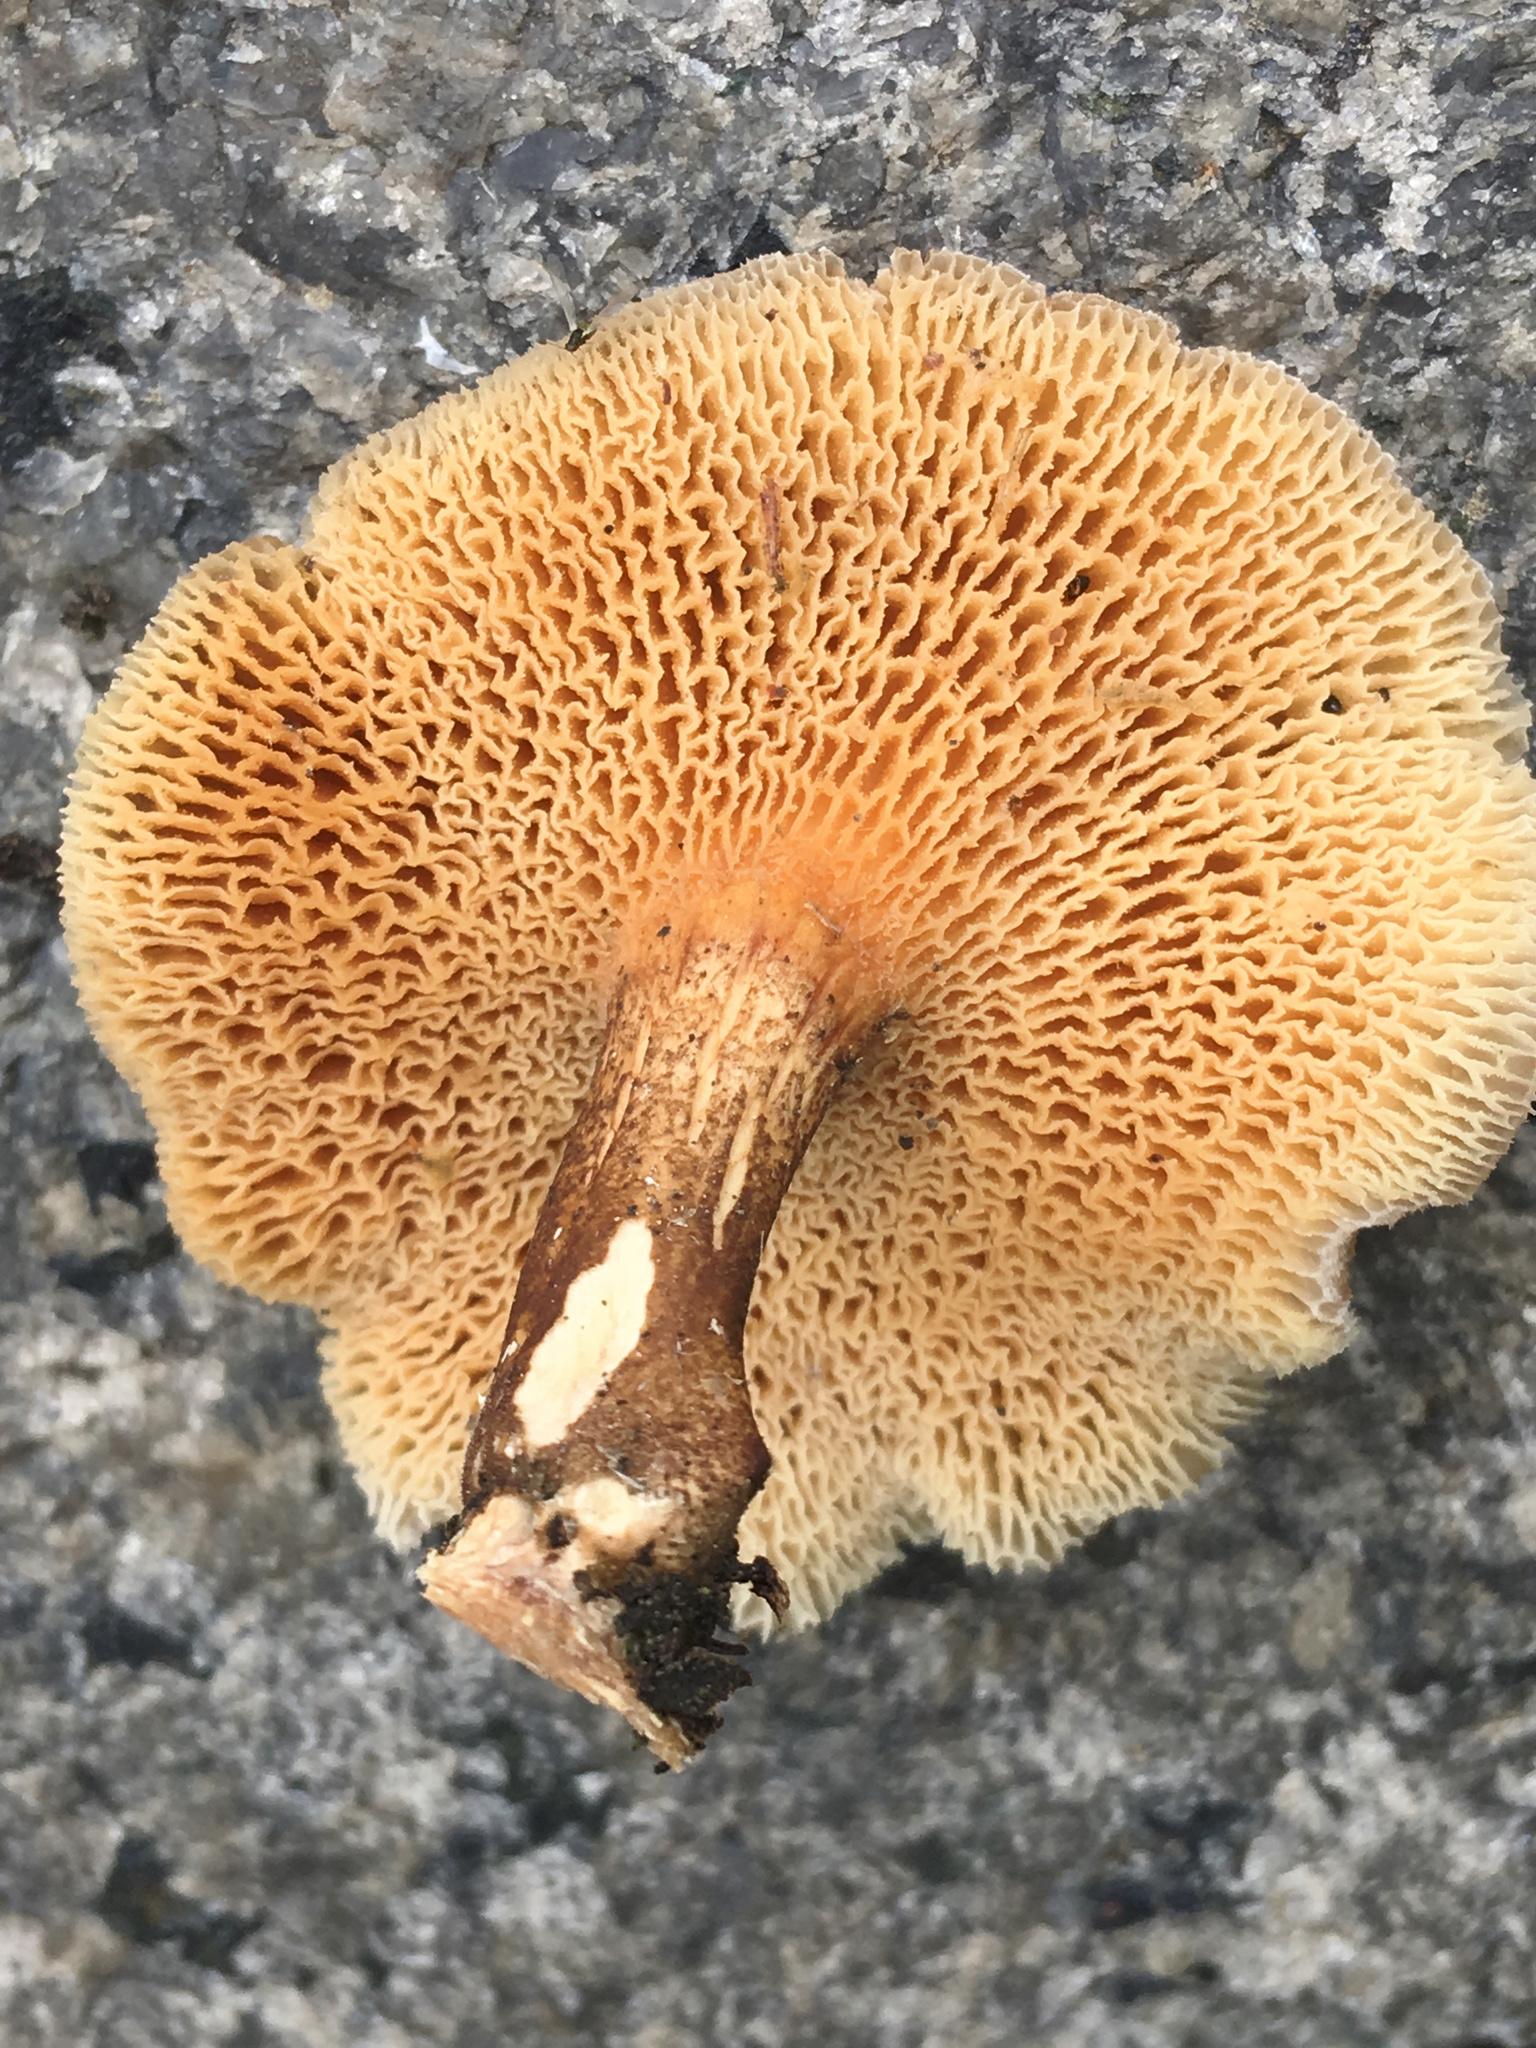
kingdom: Fungi
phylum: Basidiomycota
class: Agaricomycetes
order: Polyporales
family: Polyporaceae
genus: Lentinus
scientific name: Lentinus arcularius
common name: Spring polypore
